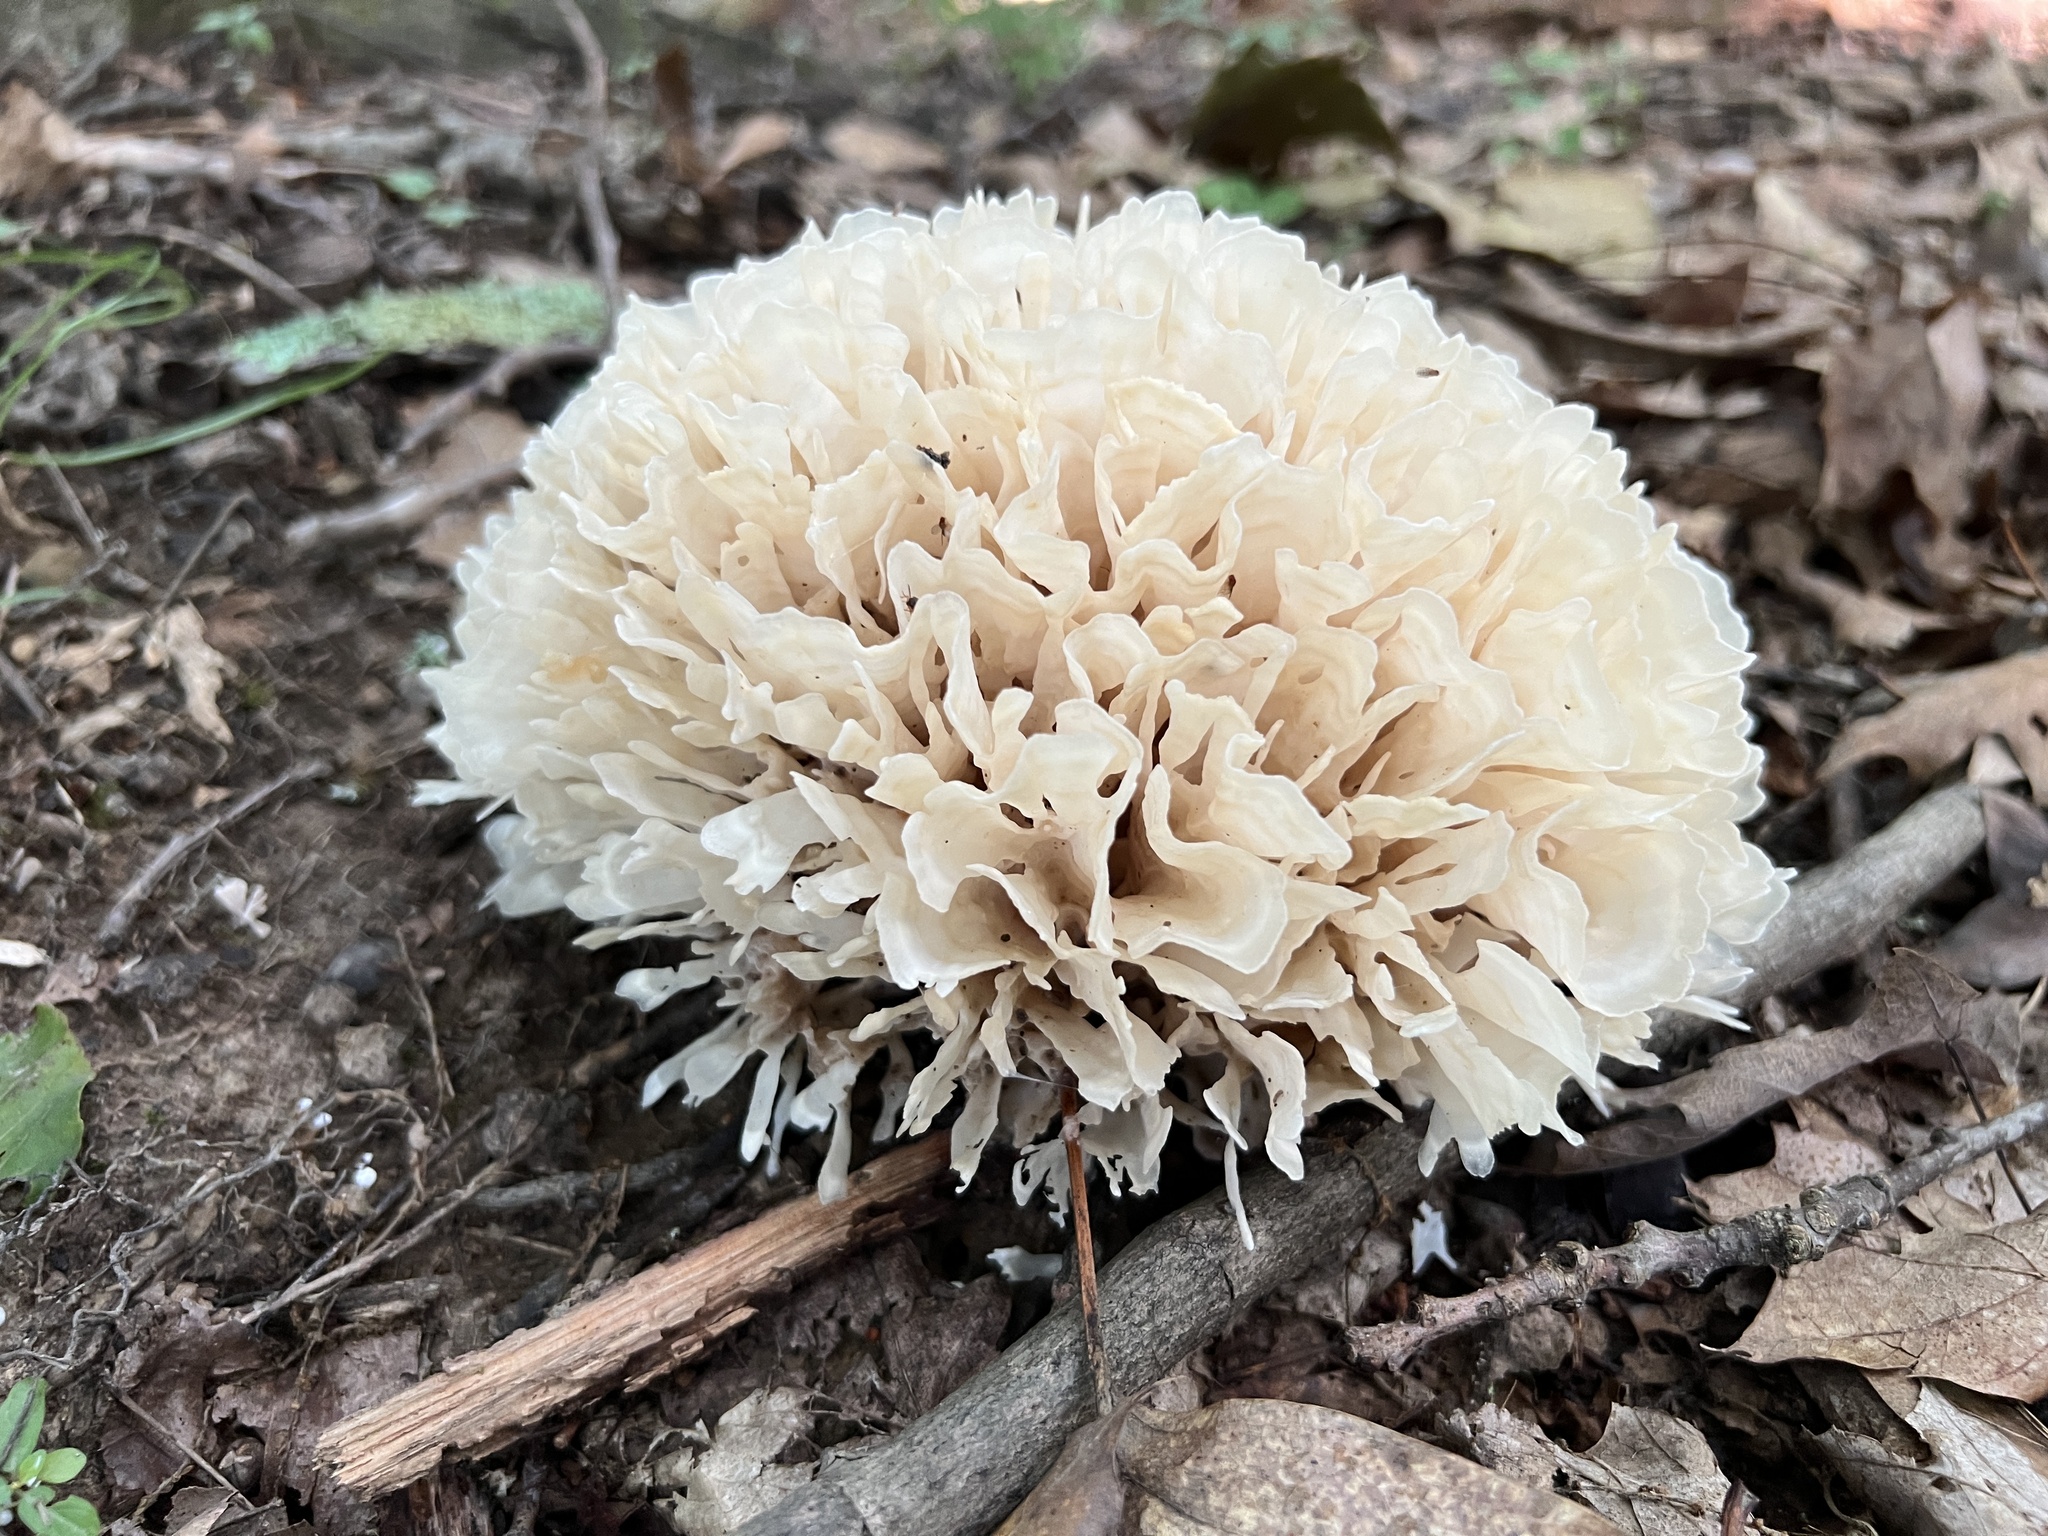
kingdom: Fungi
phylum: Basidiomycota
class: Agaricomycetes
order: Polyporales
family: Sparassidaceae
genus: Sparassis
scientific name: Sparassis spathulata
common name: Eastern cauliflower mushroom
